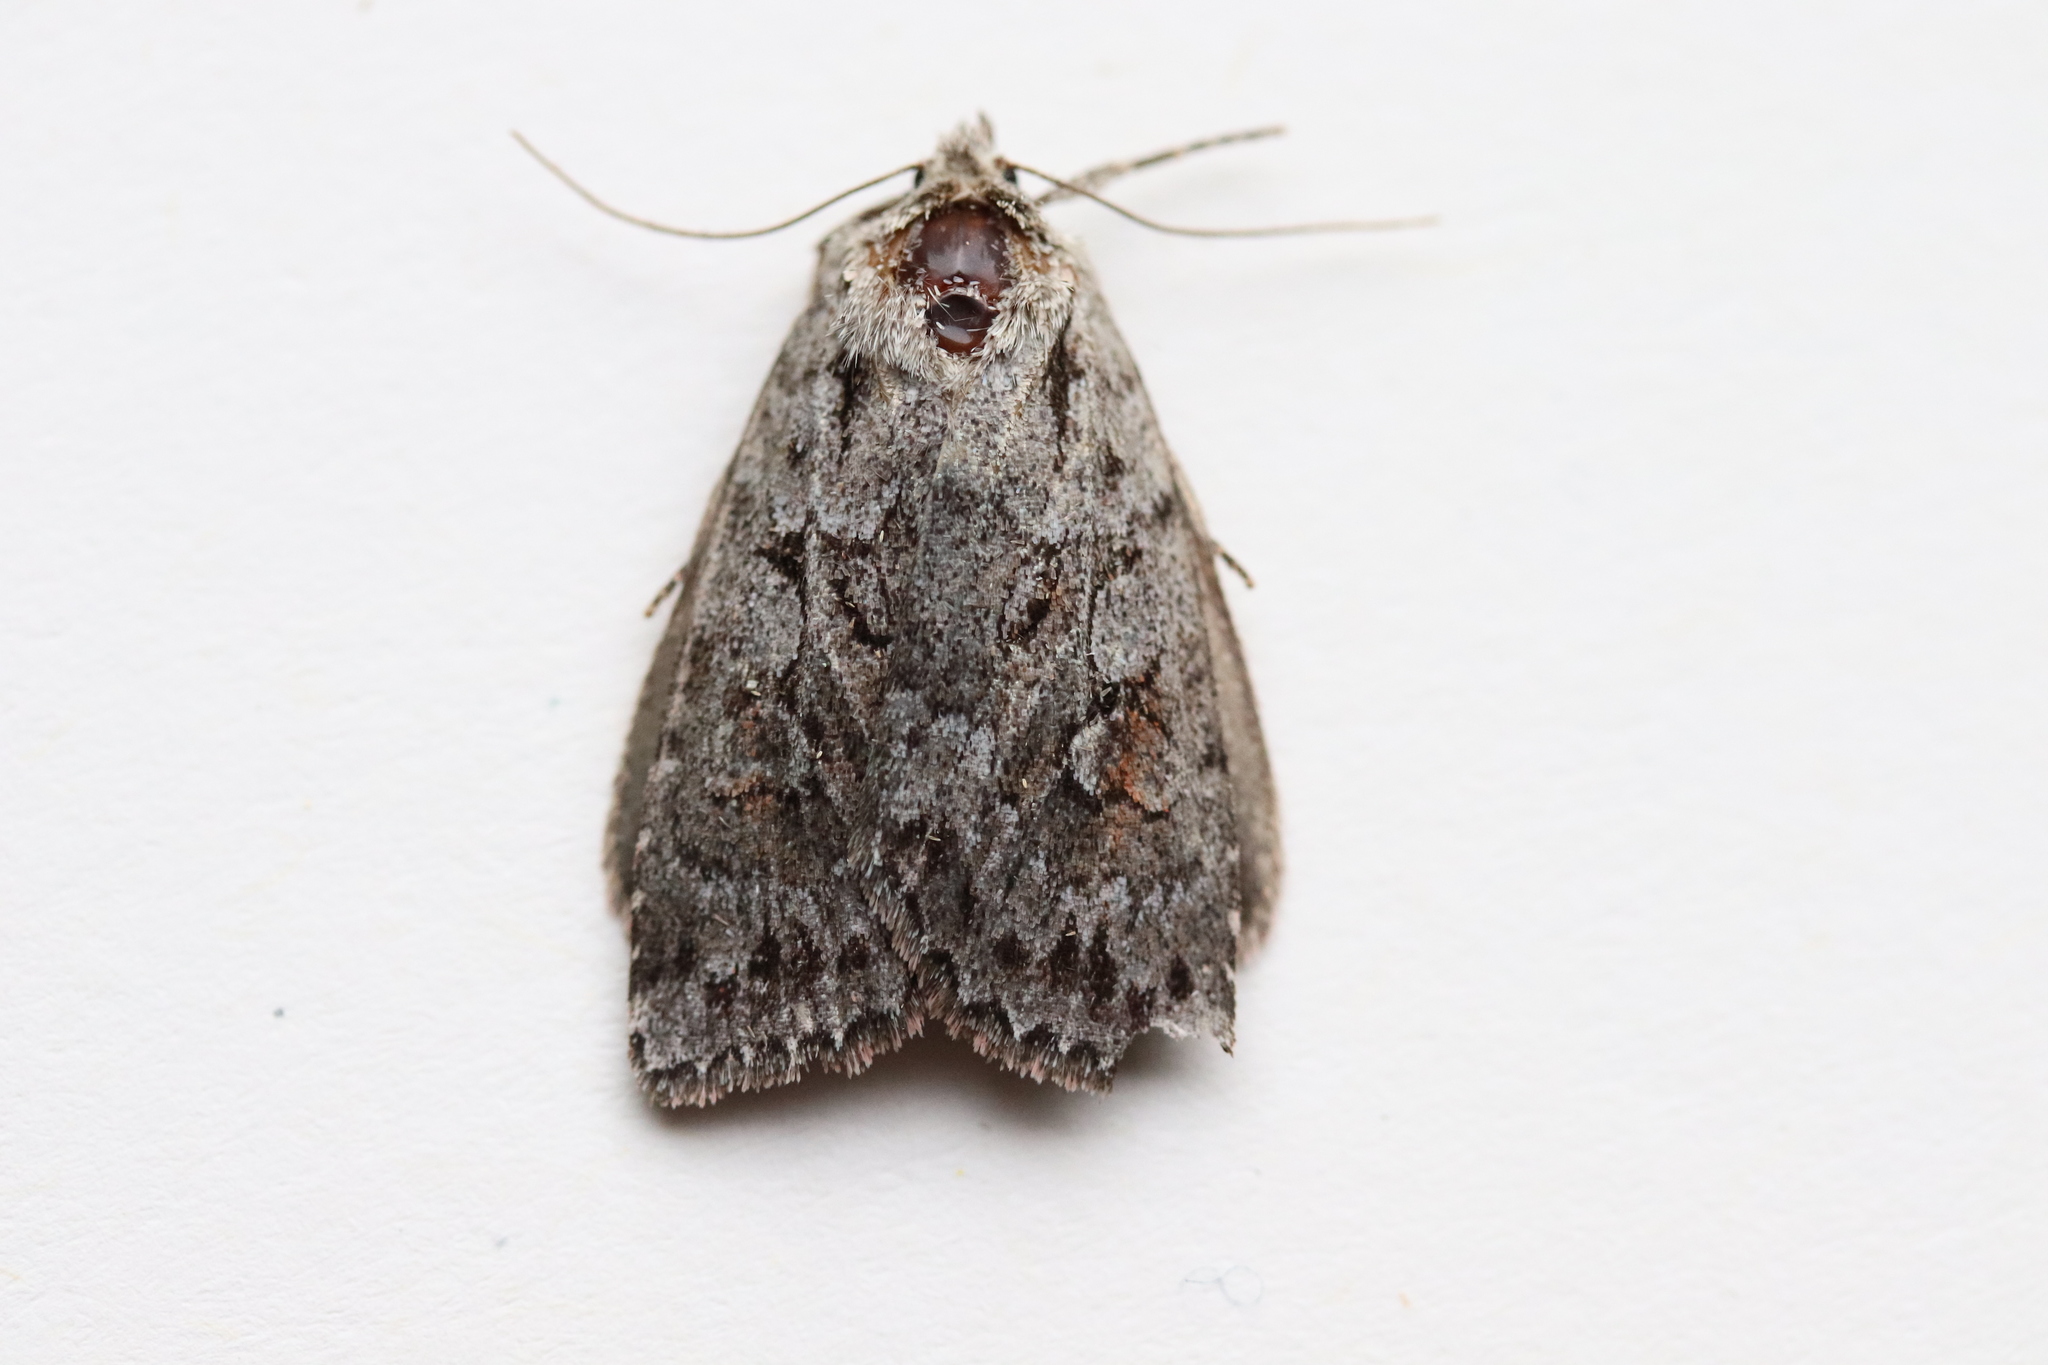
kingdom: Animalia
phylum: Arthropoda
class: Insecta
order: Lepidoptera
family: Noctuidae
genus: Xestia
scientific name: Xestia imperita
